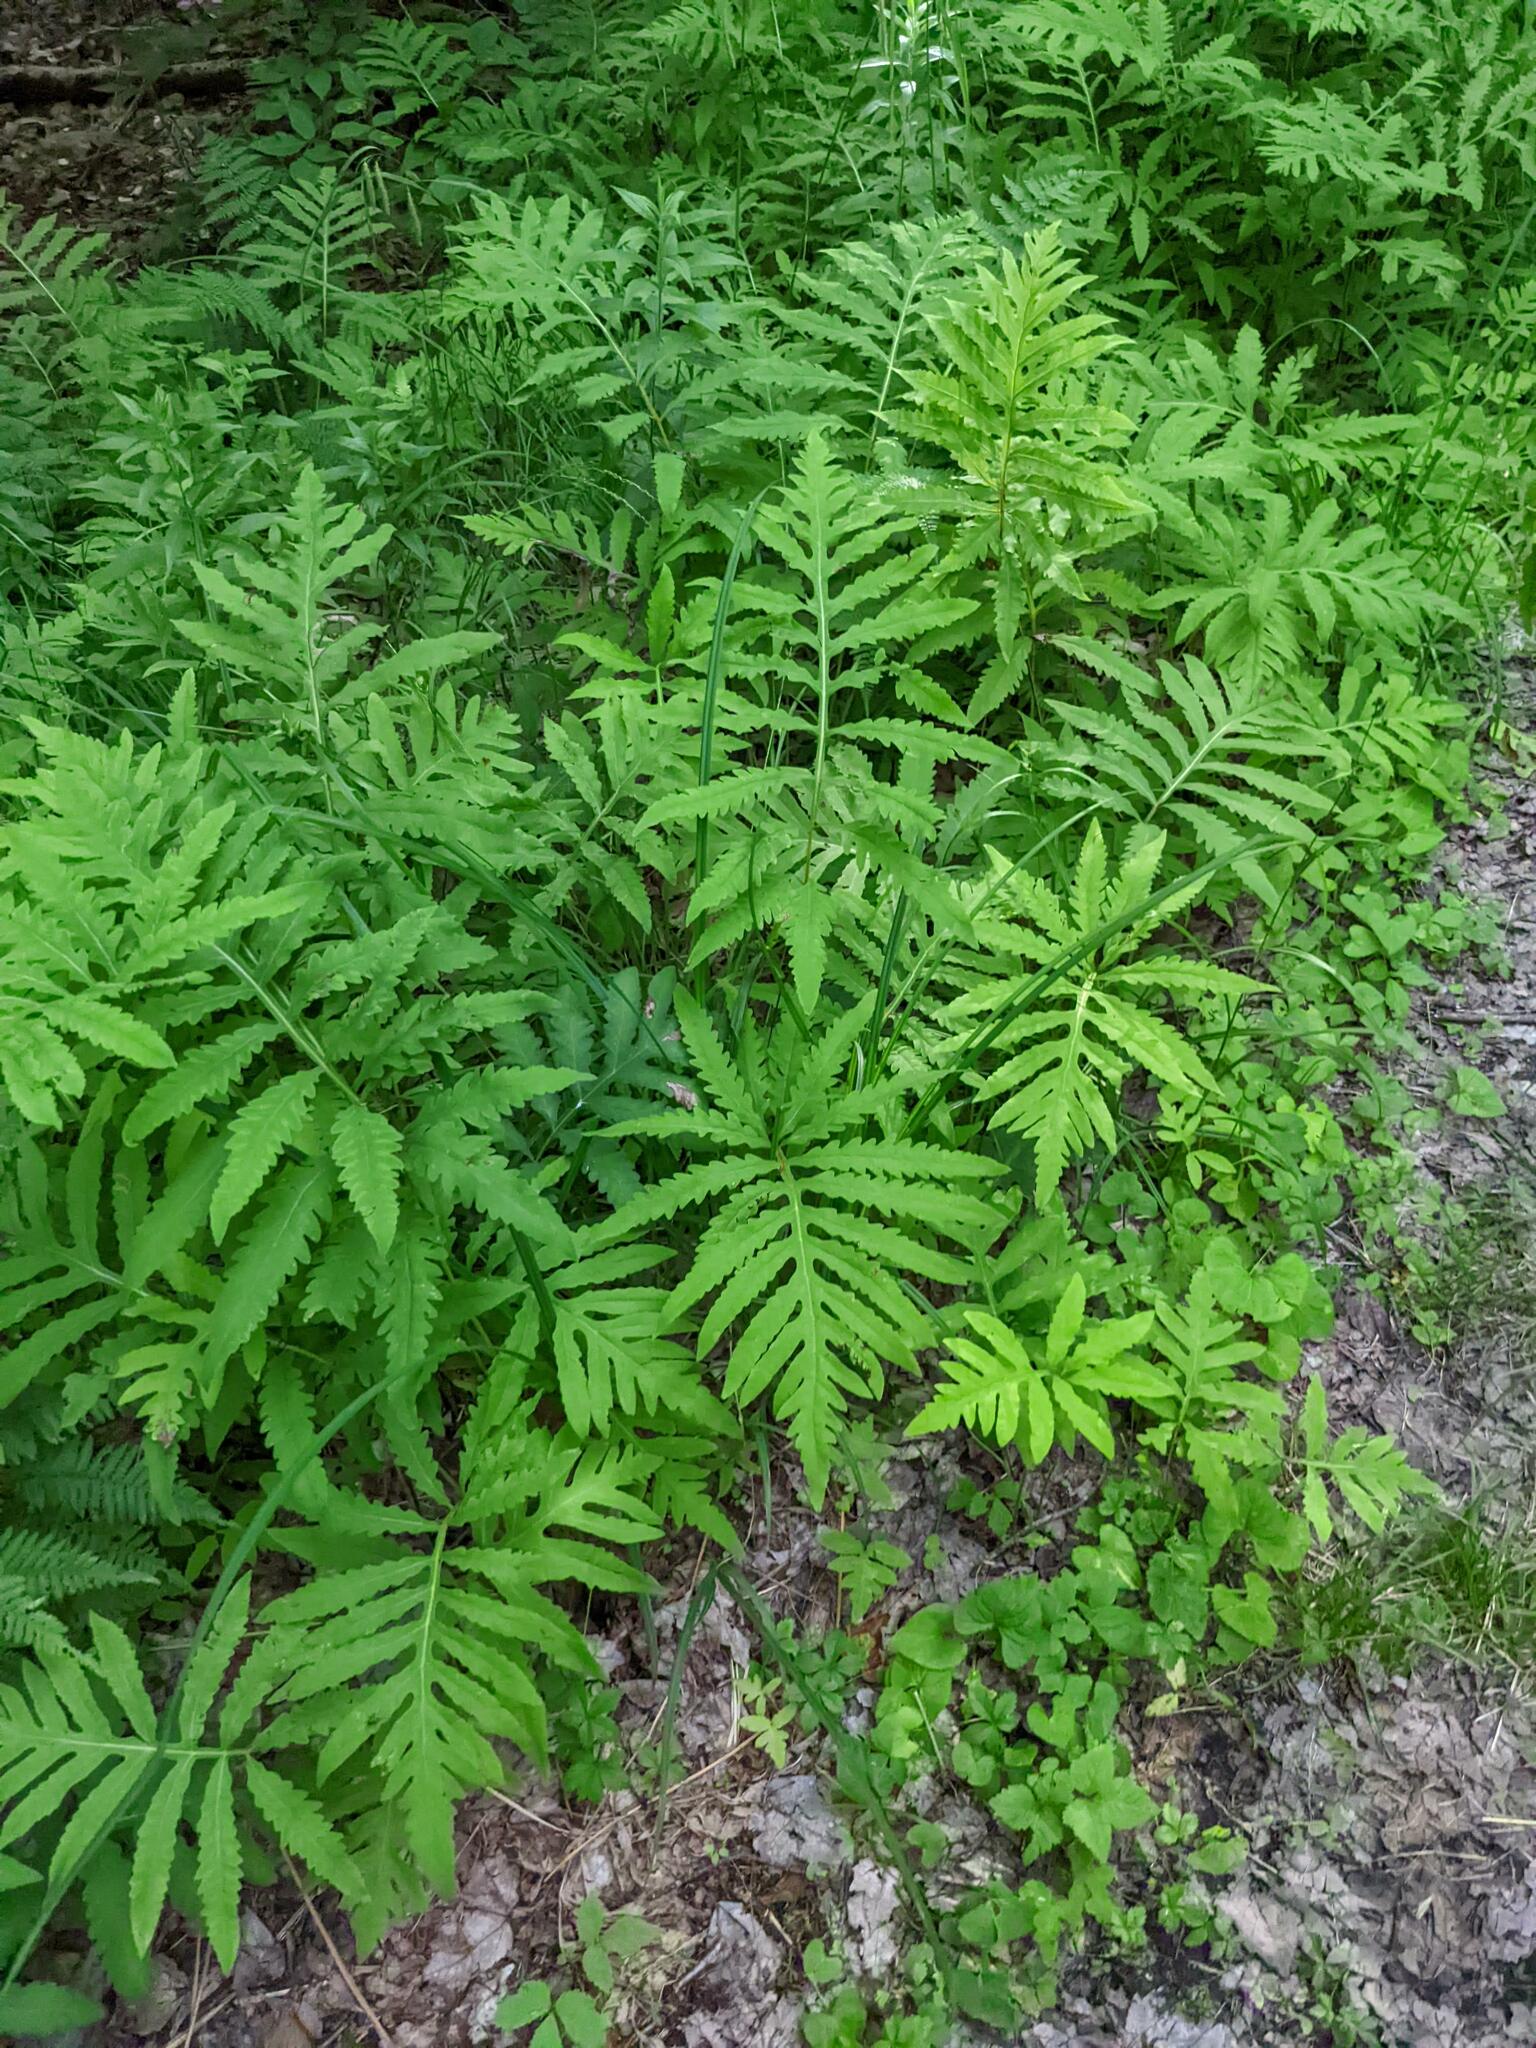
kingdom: Plantae
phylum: Tracheophyta
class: Polypodiopsida
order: Polypodiales
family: Onocleaceae
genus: Onoclea
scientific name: Onoclea sensibilis
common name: Sensitive fern
